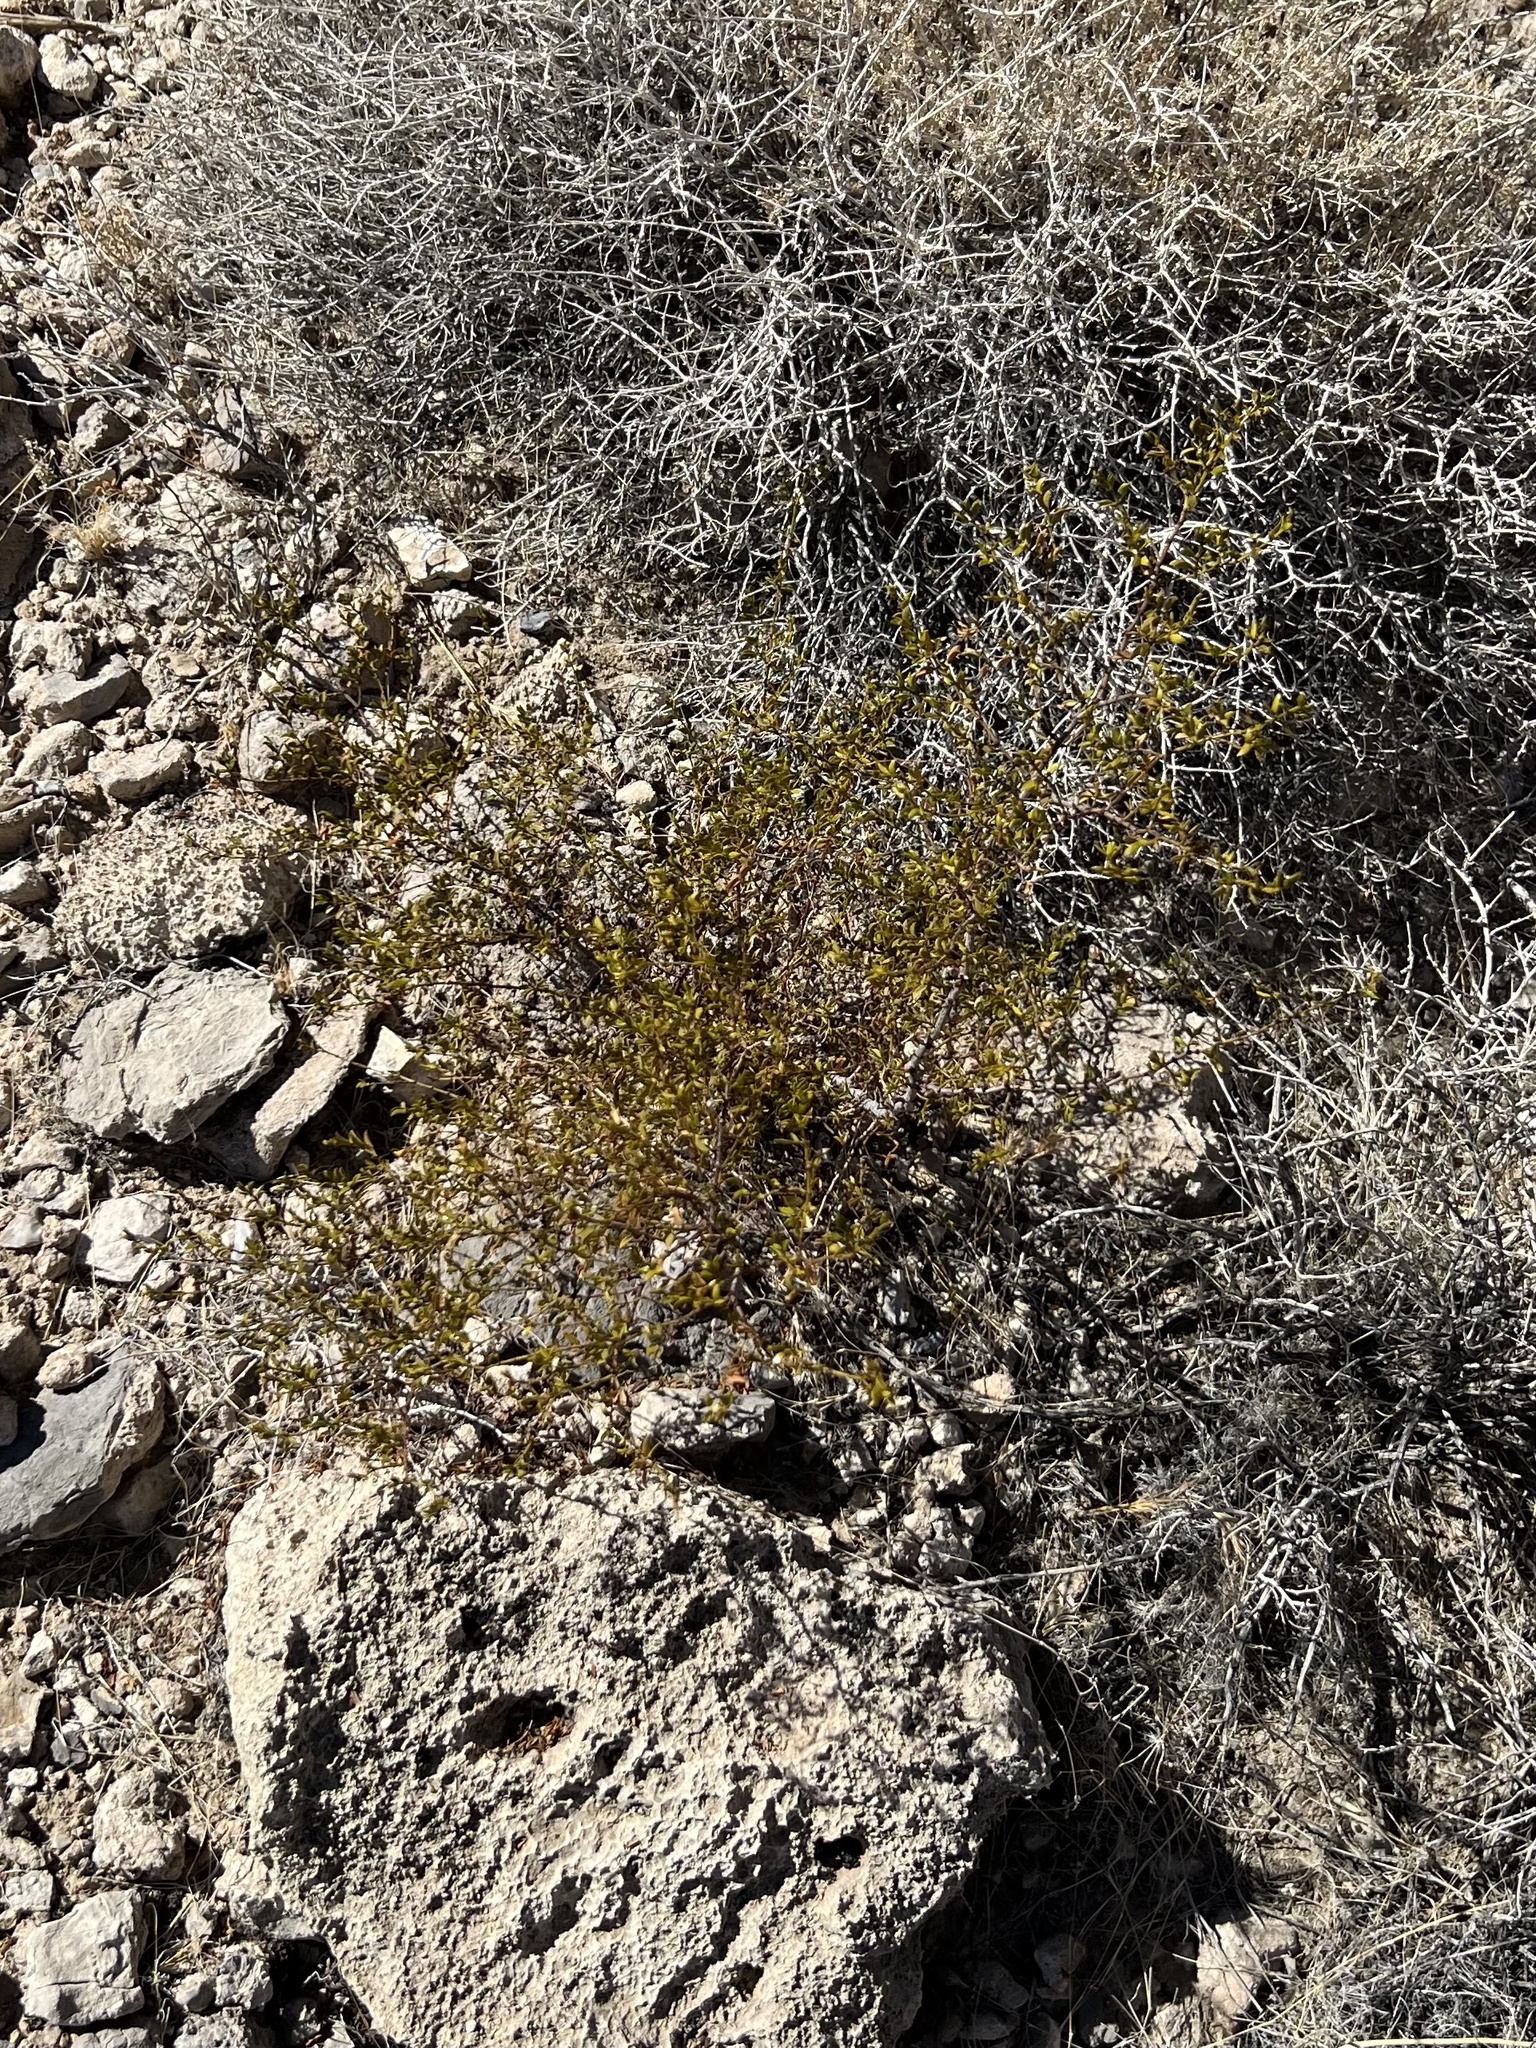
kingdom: Plantae
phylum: Tracheophyta
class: Magnoliopsida
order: Zygophyllales
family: Zygophyllaceae
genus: Larrea
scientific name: Larrea tridentata
